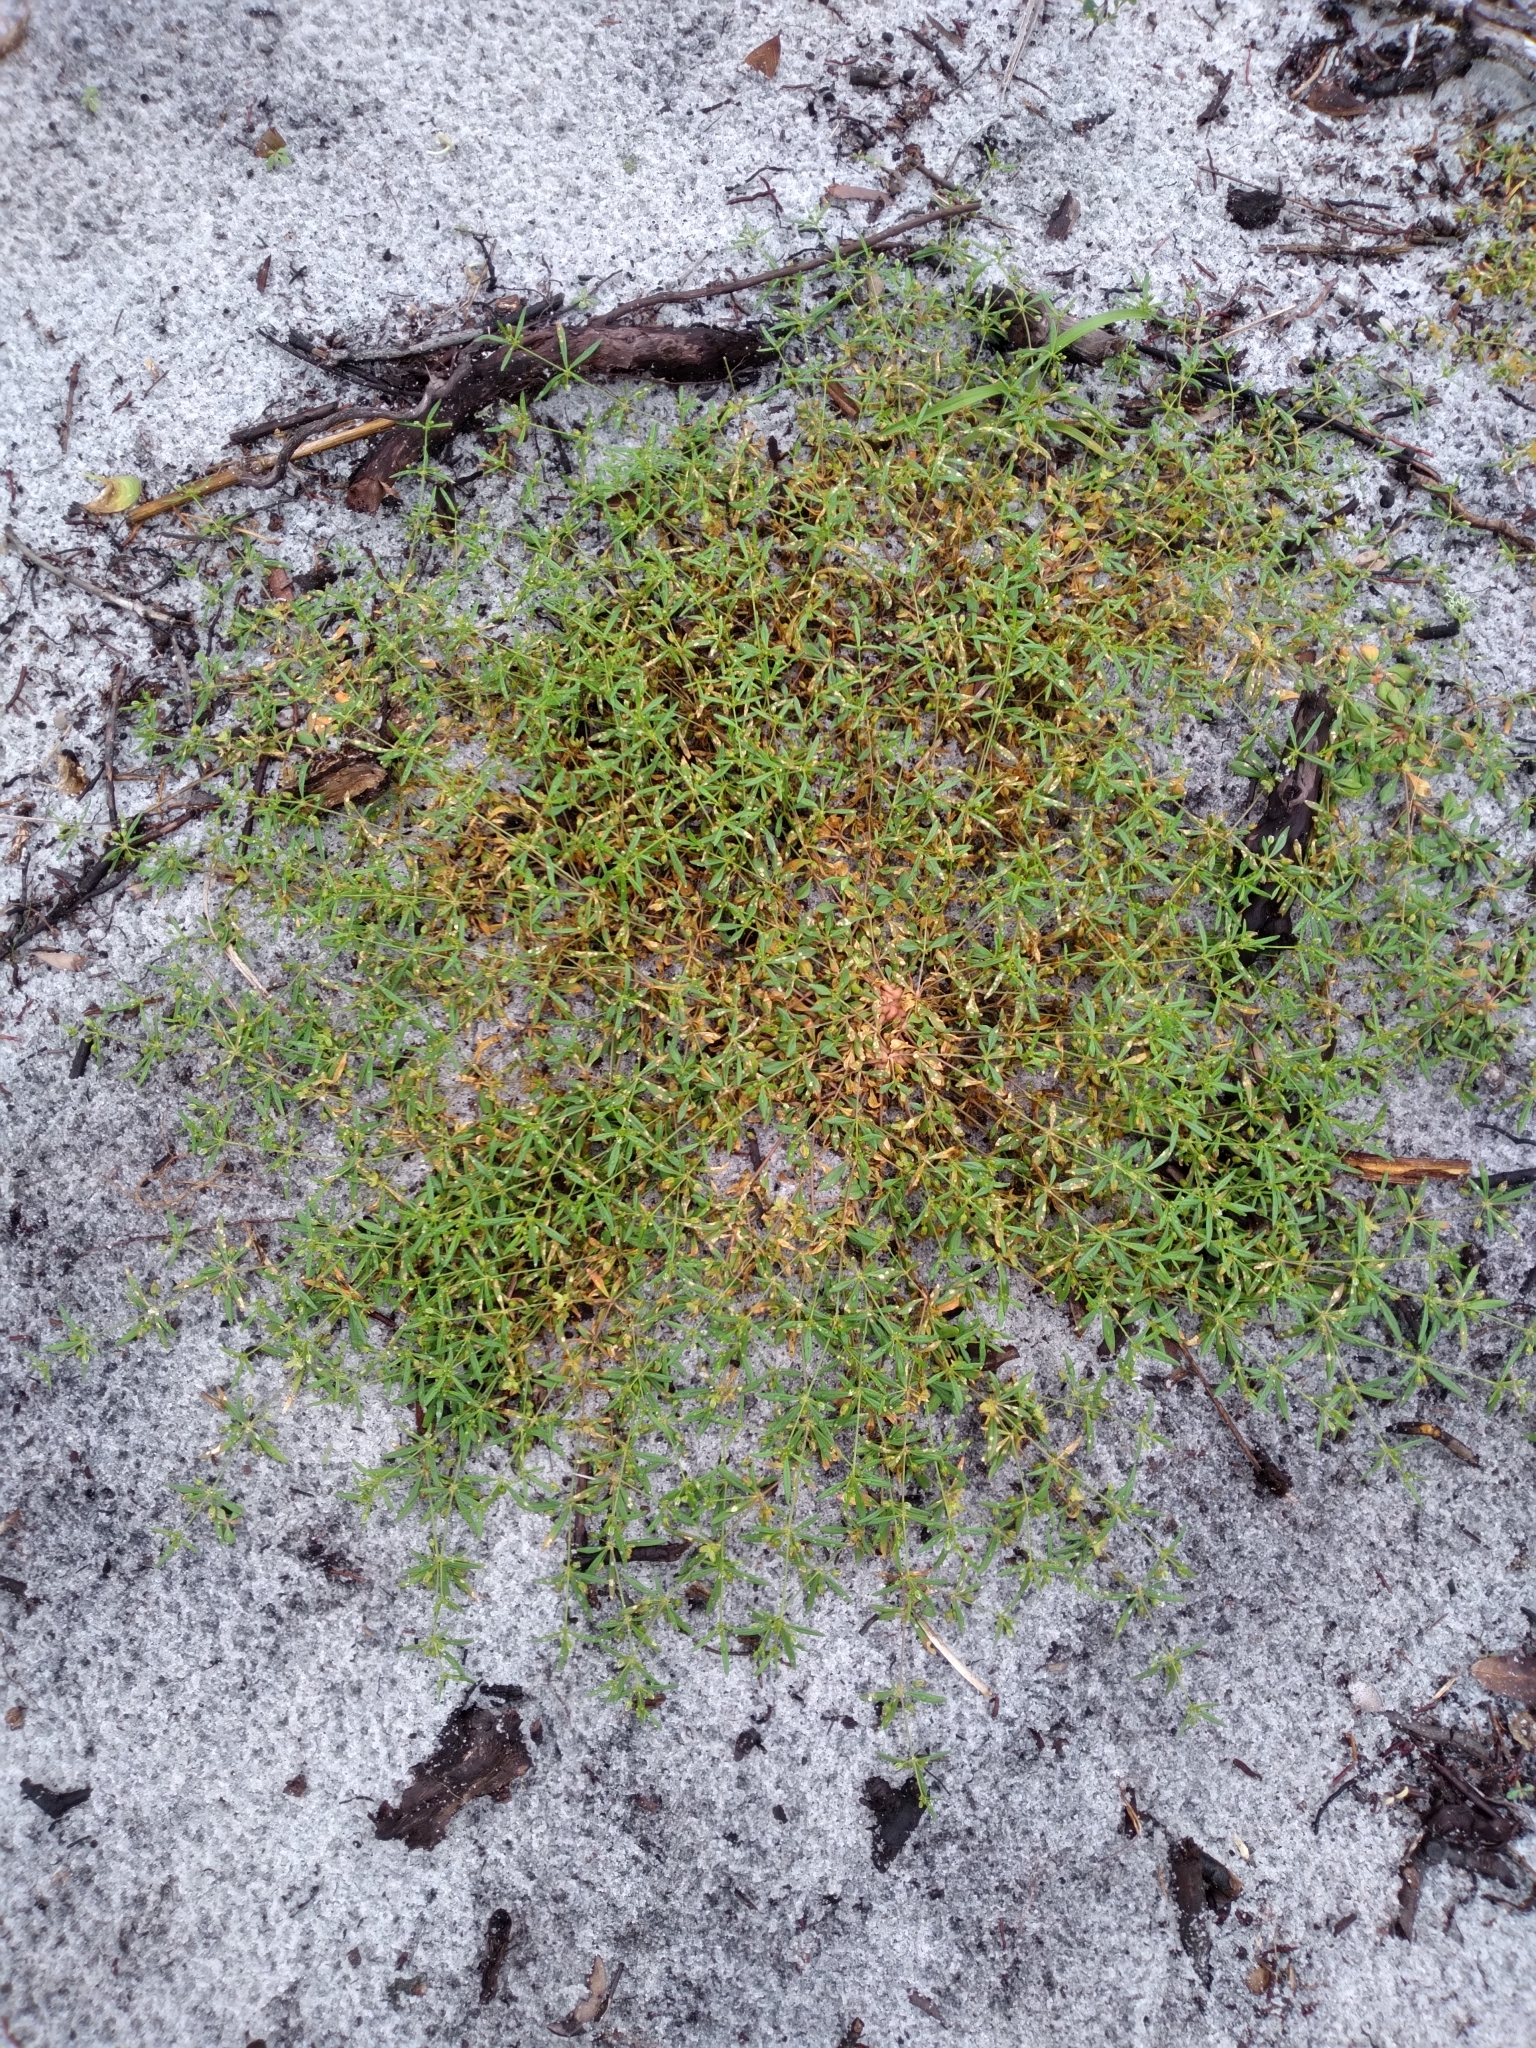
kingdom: Plantae
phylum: Tracheophyta
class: Magnoliopsida
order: Caryophyllales
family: Molluginaceae
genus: Mollugo
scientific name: Mollugo verticillata
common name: Green carpetweed
